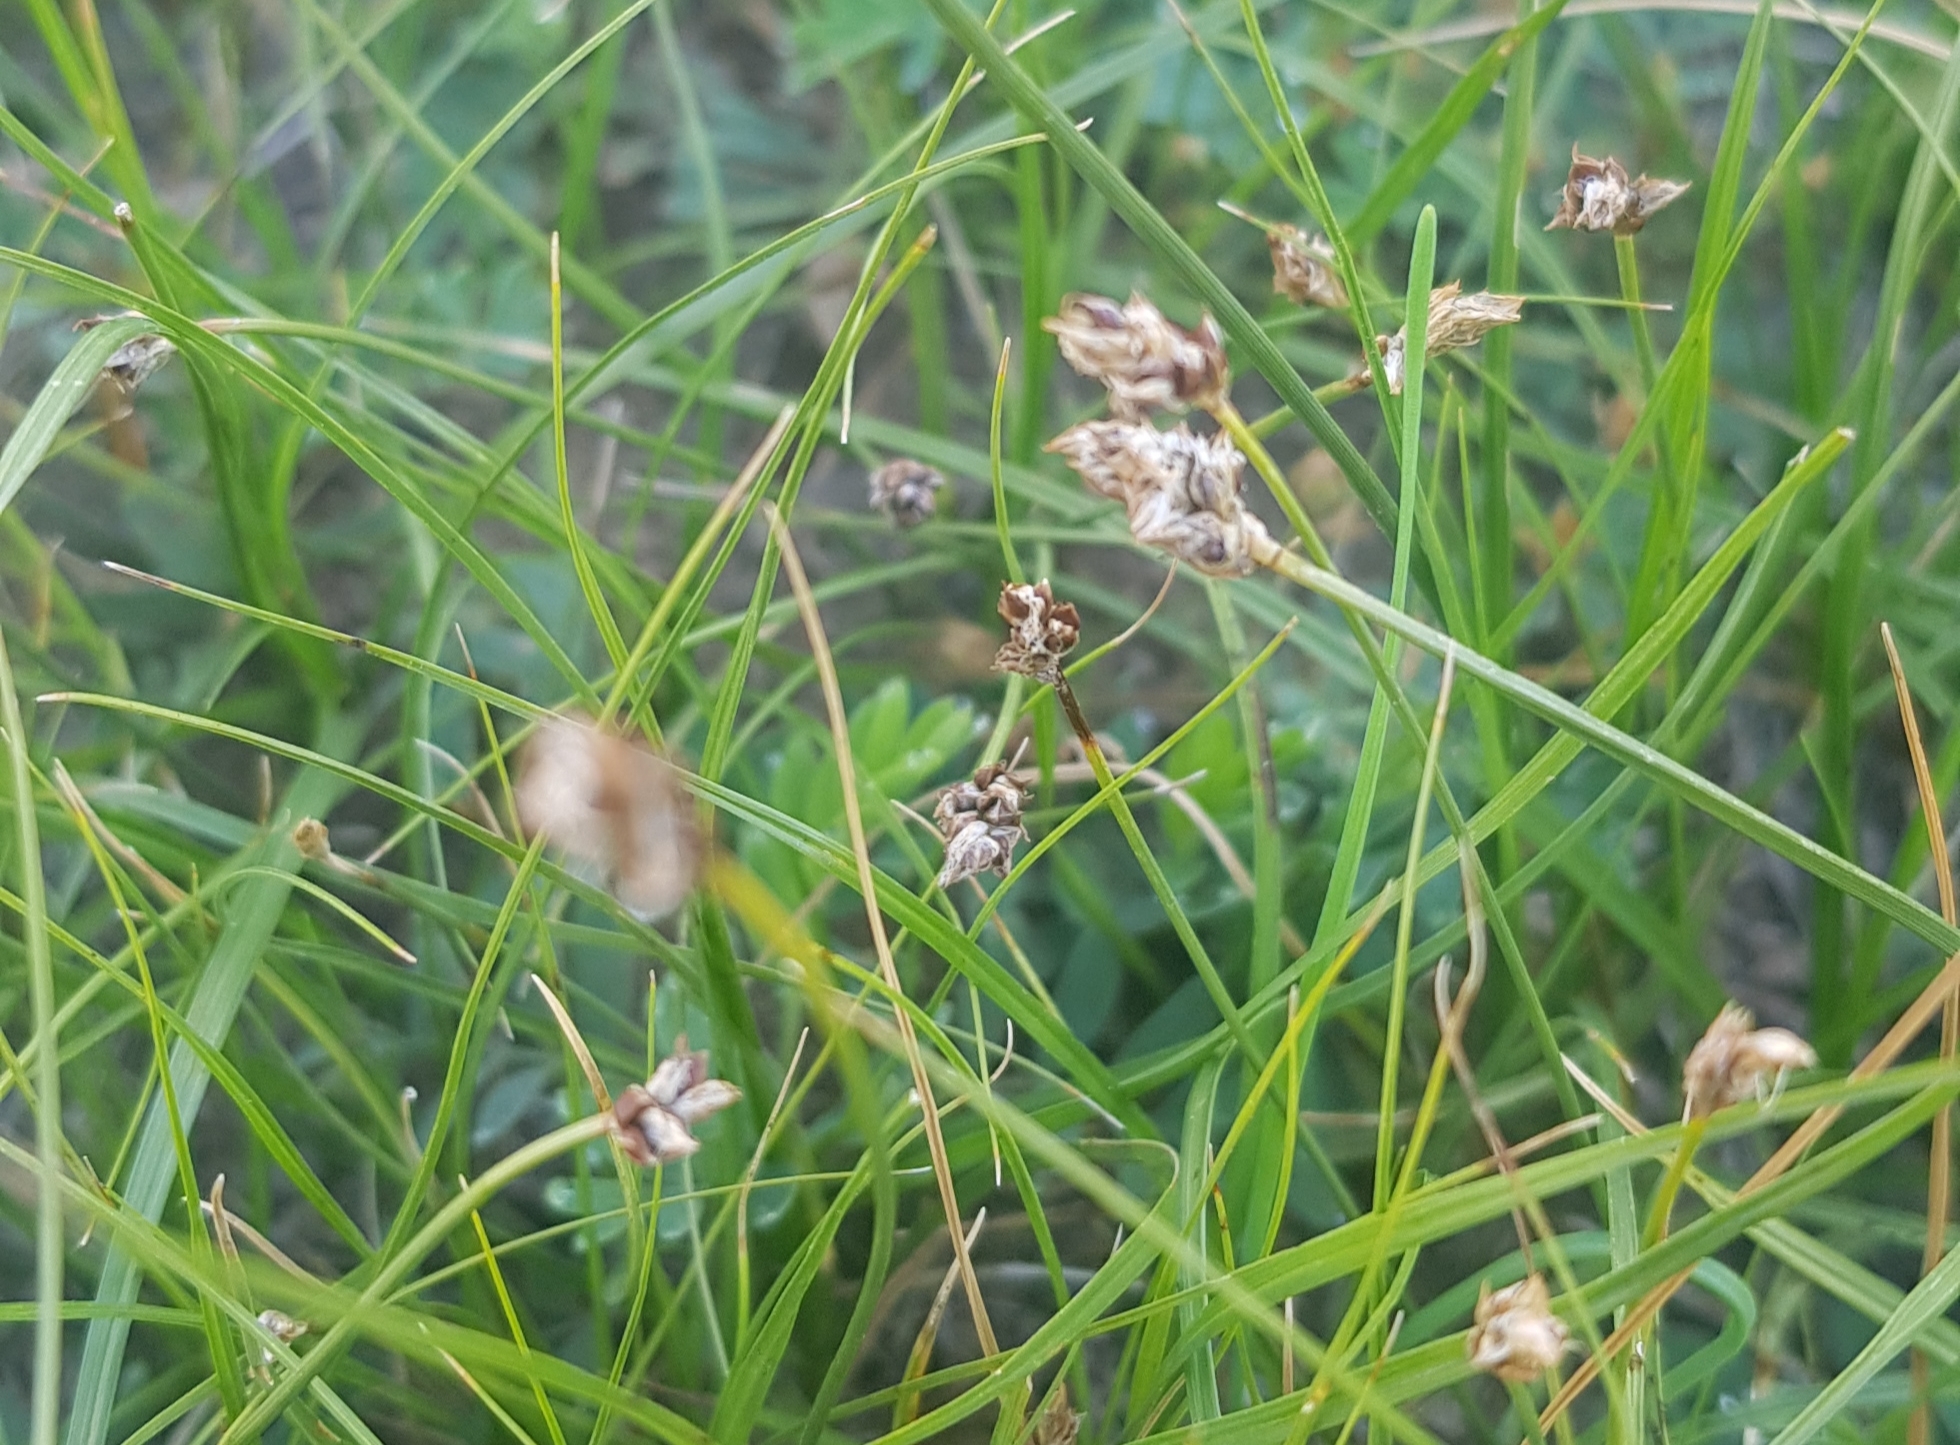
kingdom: Plantae
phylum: Tracheophyta
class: Liliopsida
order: Poales
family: Cyperaceae
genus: Carex
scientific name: Carex duriuscula
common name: Involute-leaved sedge
